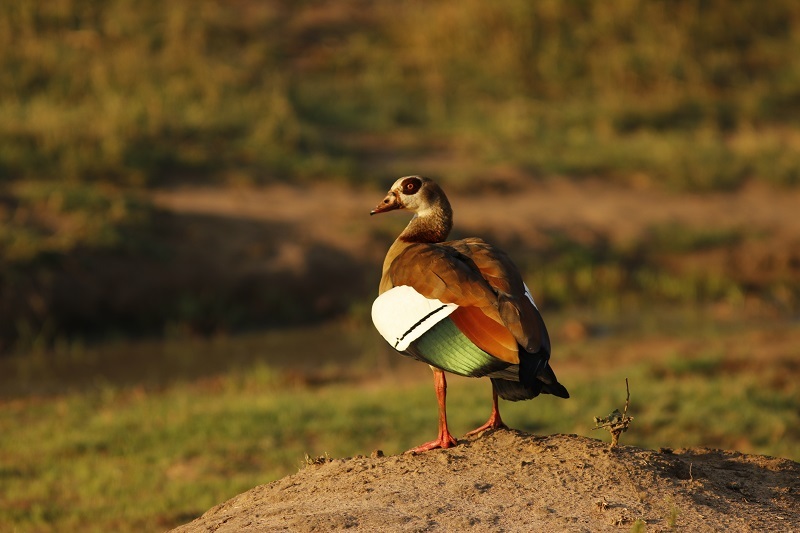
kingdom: Animalia
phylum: Chordata
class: Aves
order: Anseriformes
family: Anatidae
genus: Alopochen
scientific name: Alopochen aegyptiaca
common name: Egyptian goose
